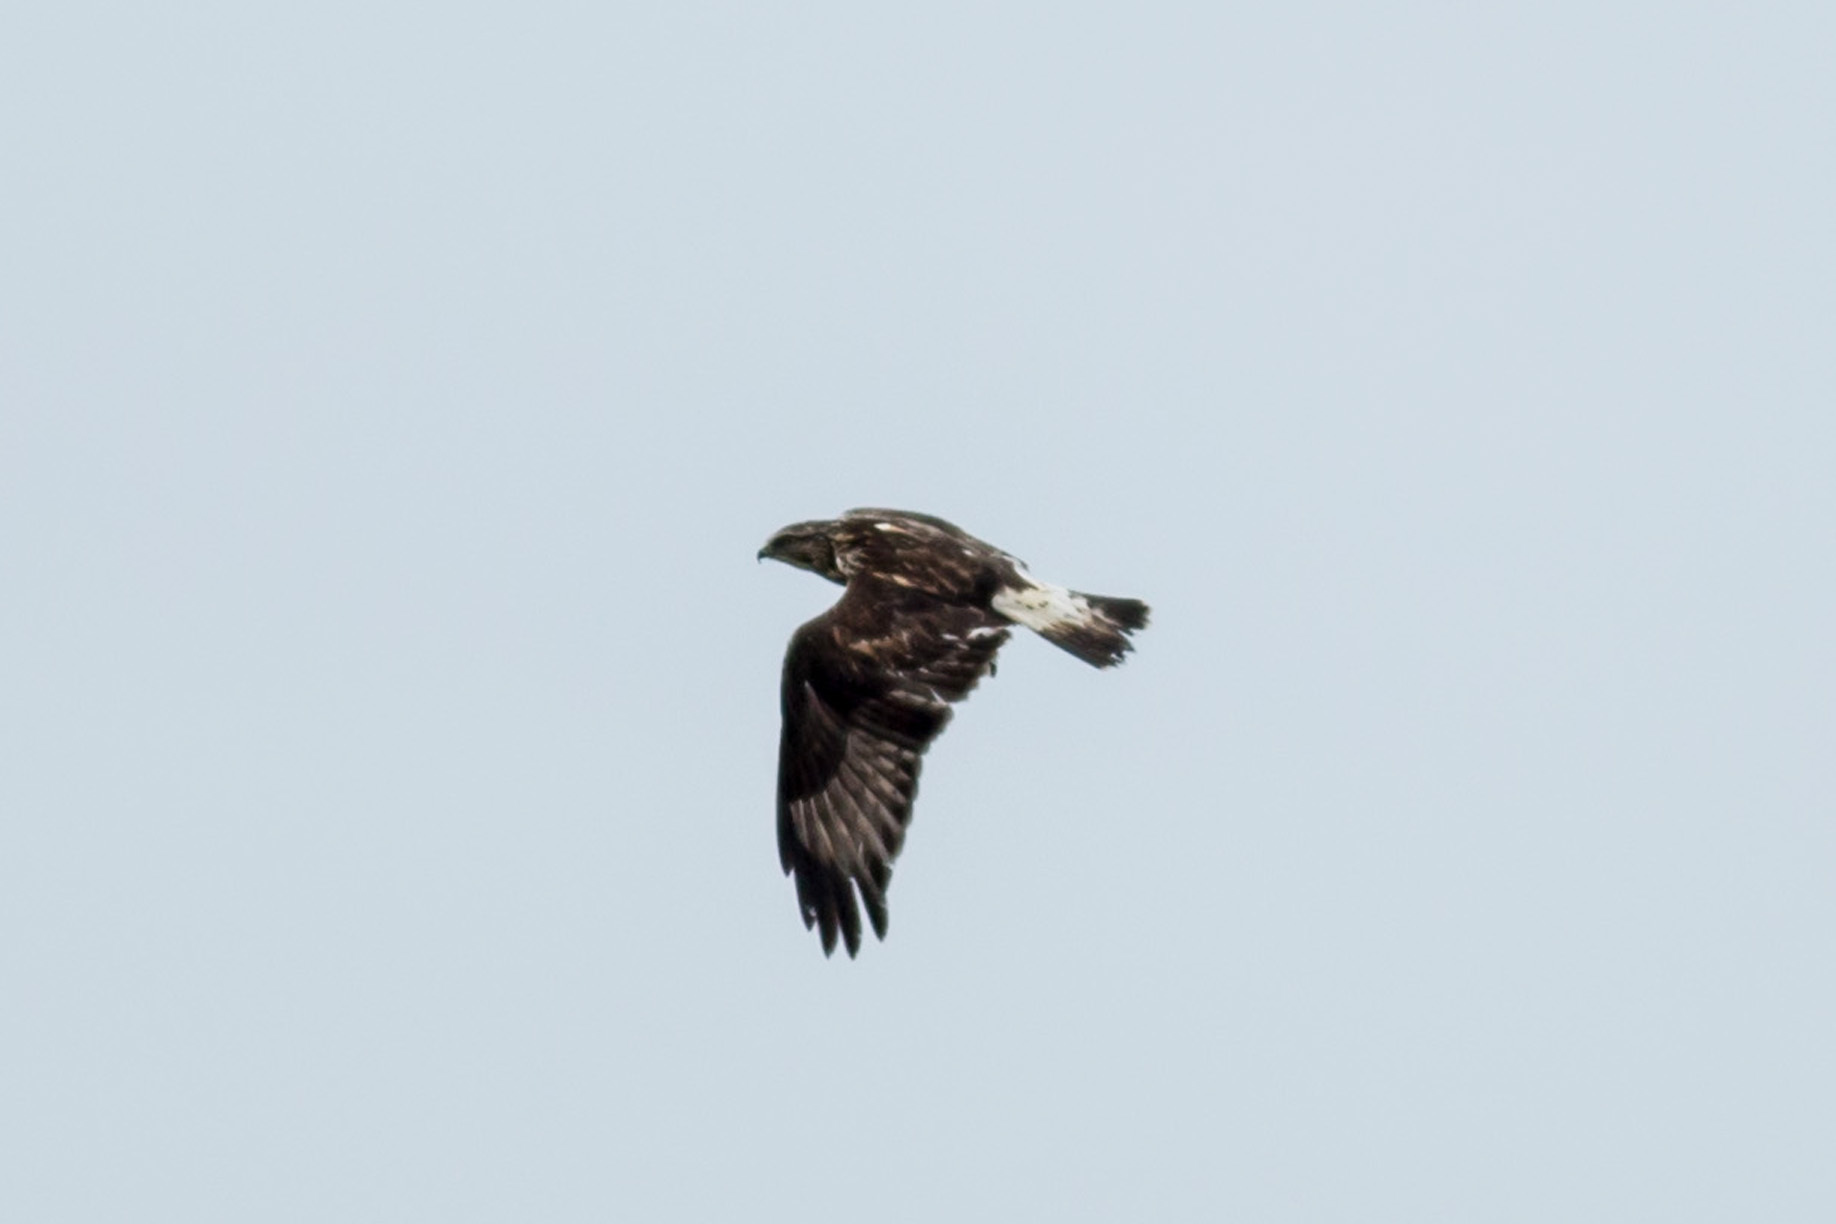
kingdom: Animalia
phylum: Chordata
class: Aves
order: Accipitriformes
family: Accipitridae
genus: Buteo
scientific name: Buteo lagopus
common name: Rough-legged buzzard
